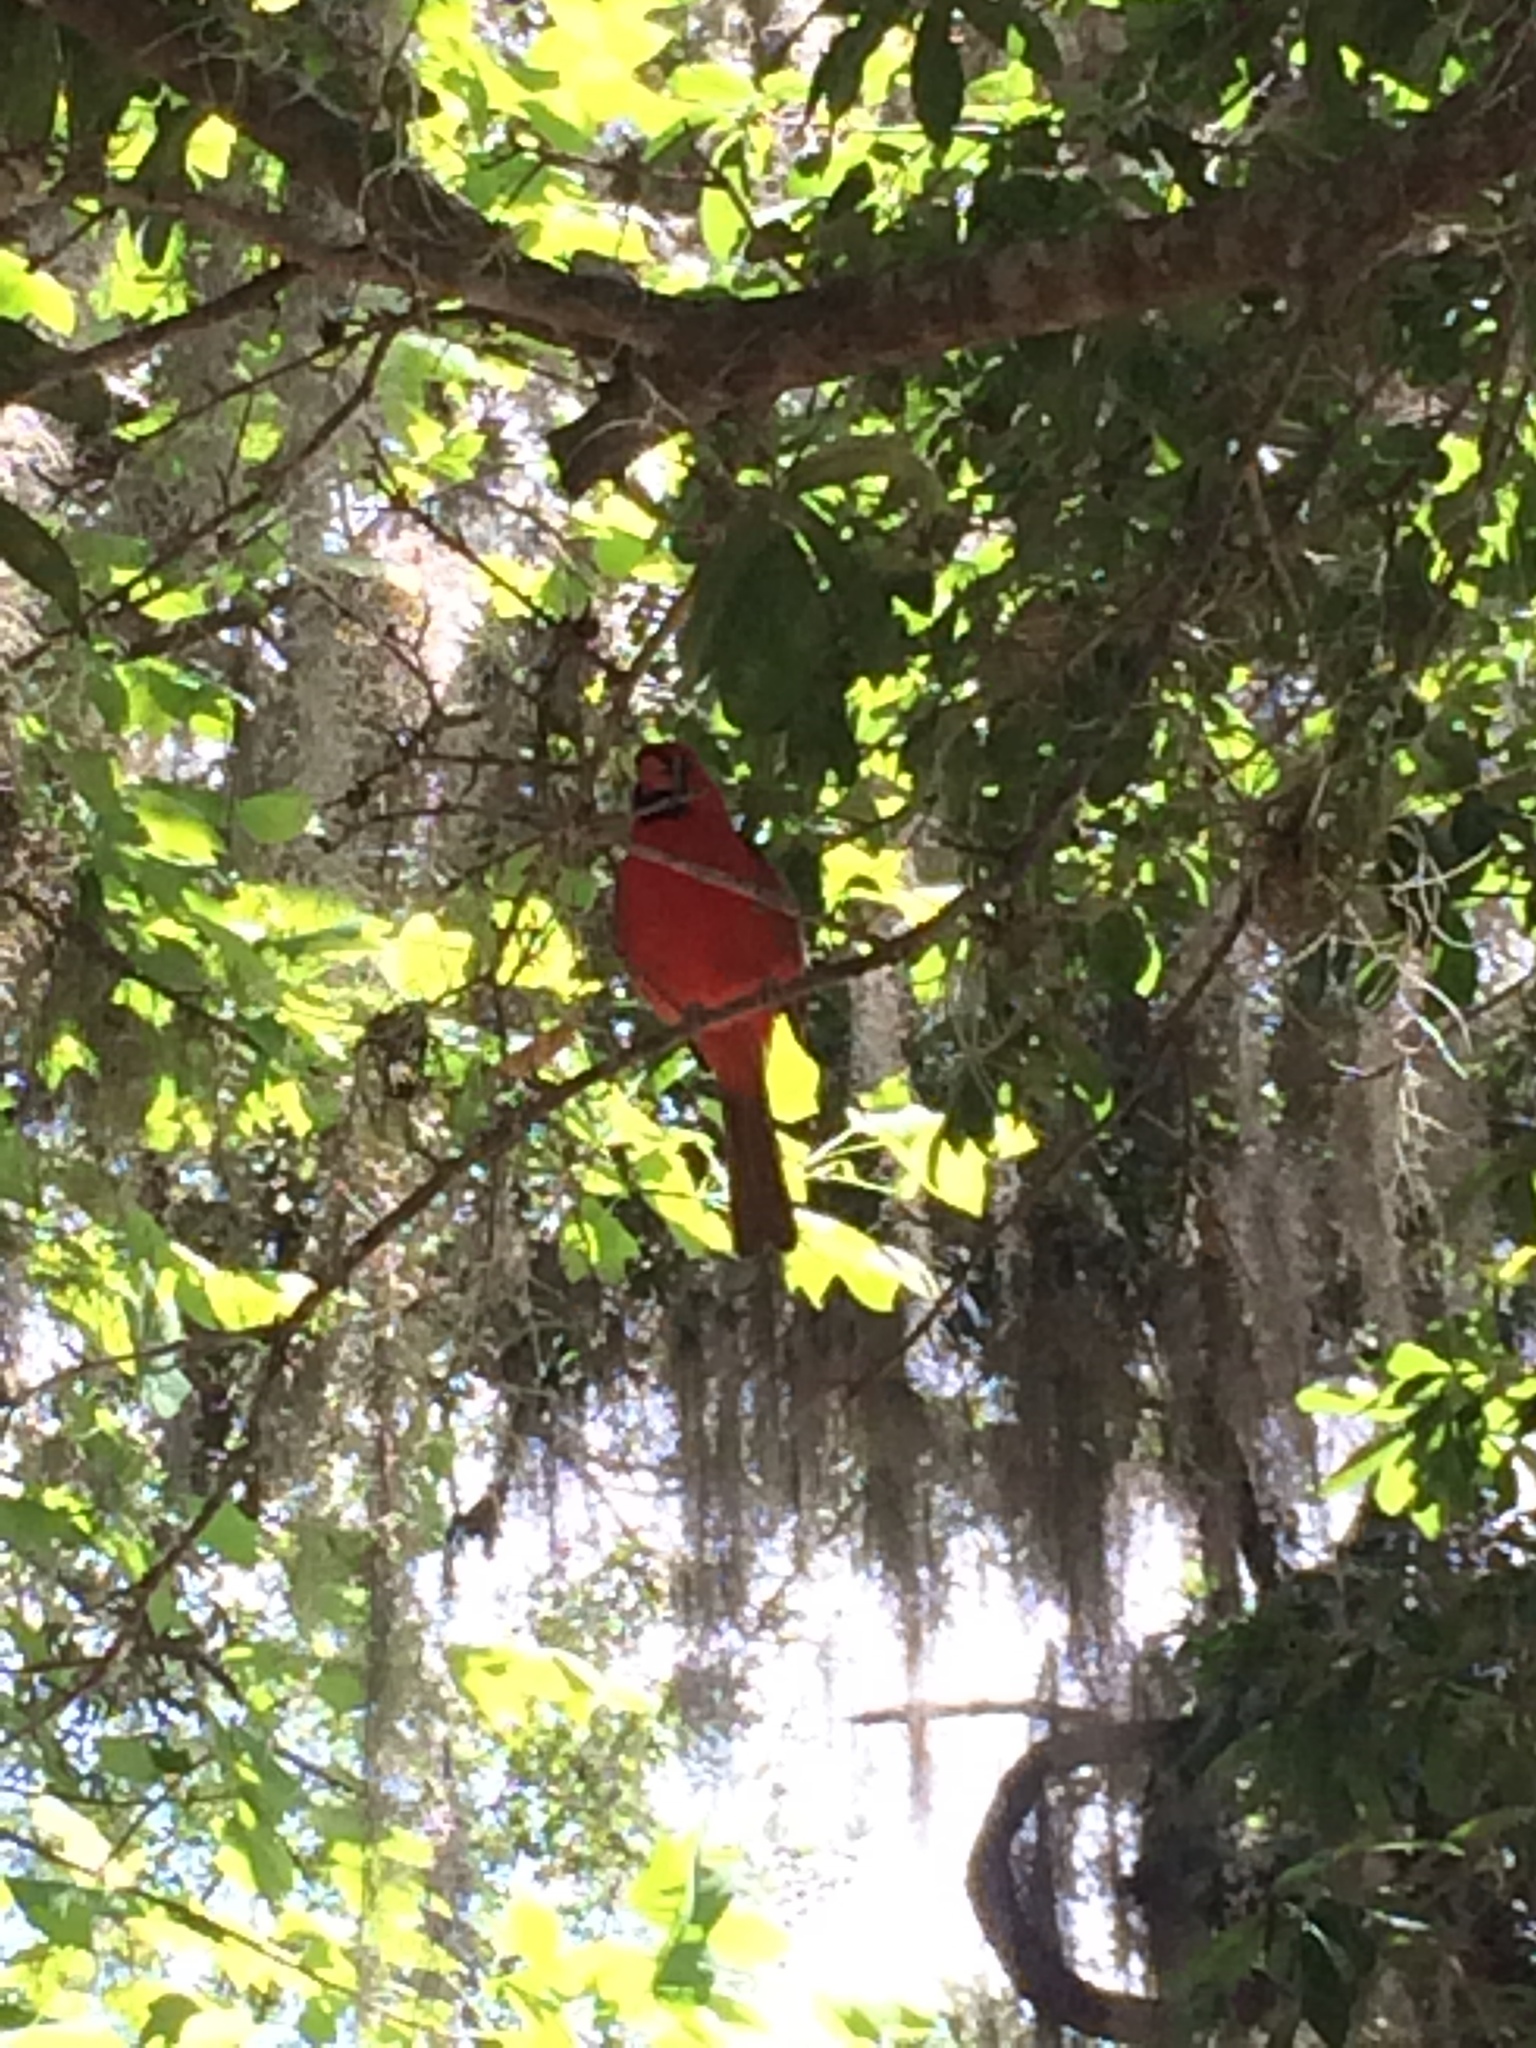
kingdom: Animalia
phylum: Chordata
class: Aves
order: Passeriformes
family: Cardinalidae
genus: Cardinalis
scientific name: Cardinalis cardinalis
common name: Northern cardinal
